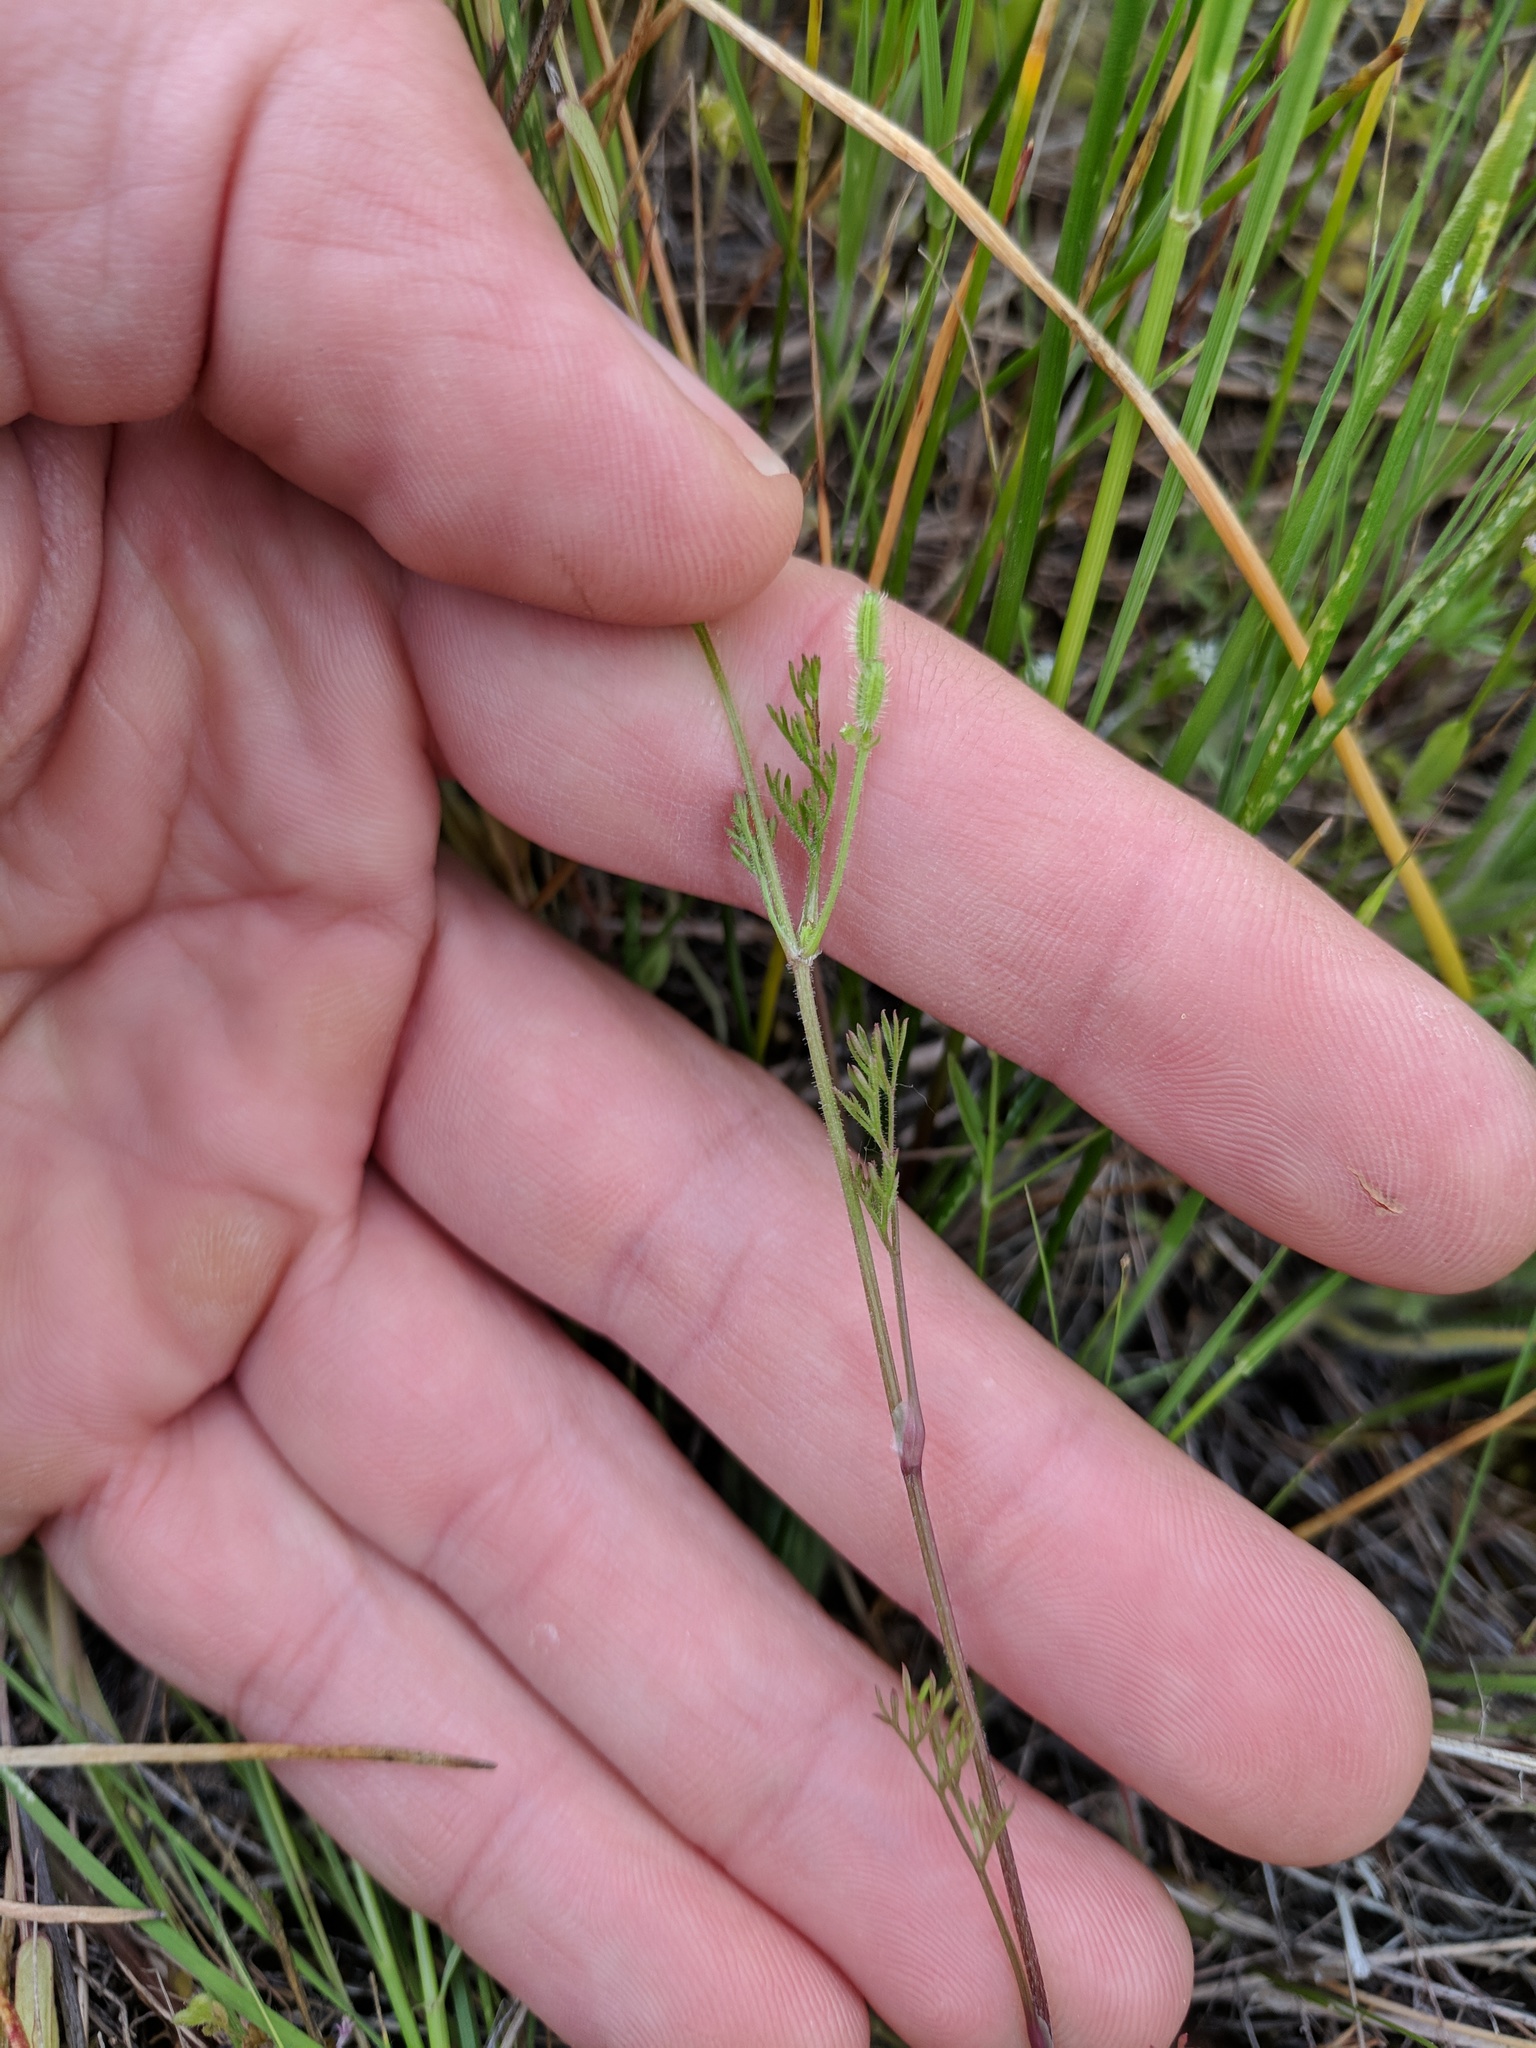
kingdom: Plantae
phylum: Tracheophyta
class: Magnoliopsida
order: Apiales
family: Apiaceae
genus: Yabea
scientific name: Yabea microcarpa
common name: False carrot
